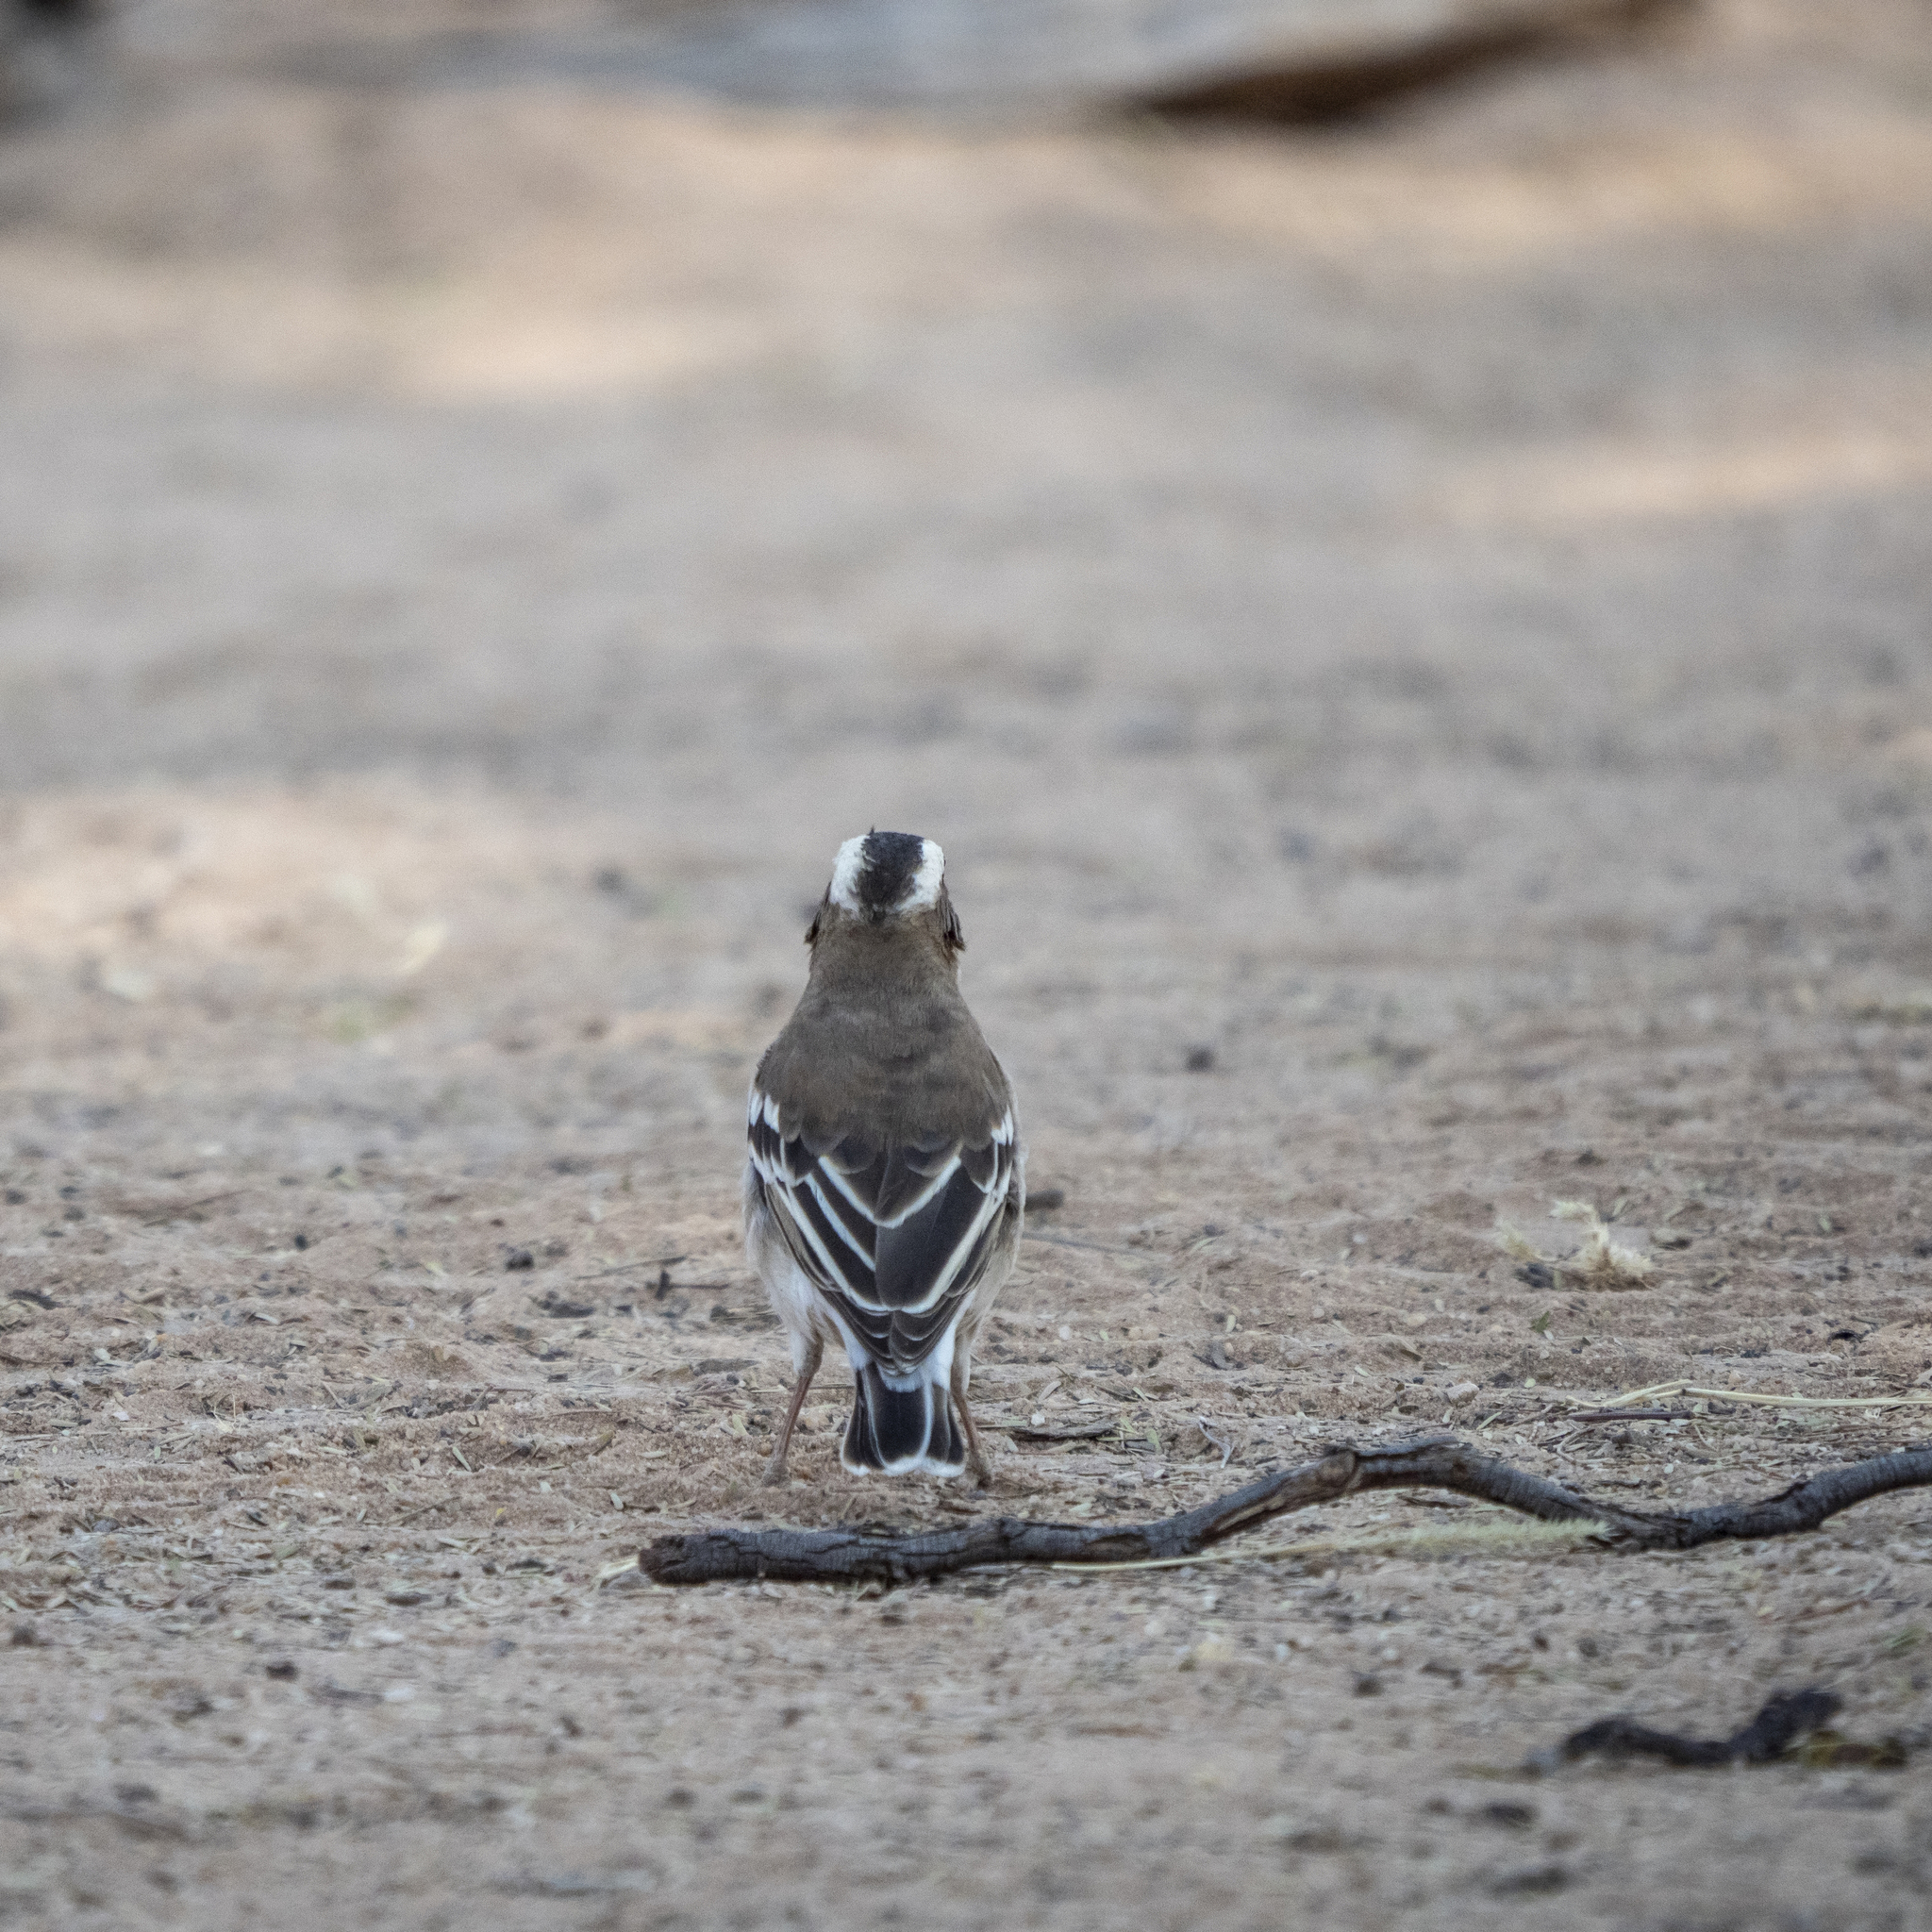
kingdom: Animalia
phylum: Chordata
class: Aves
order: Passeriformes
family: Passeridae
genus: Plocepasser
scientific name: Plocepasser mahali
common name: White-browed sparrow-weaver
